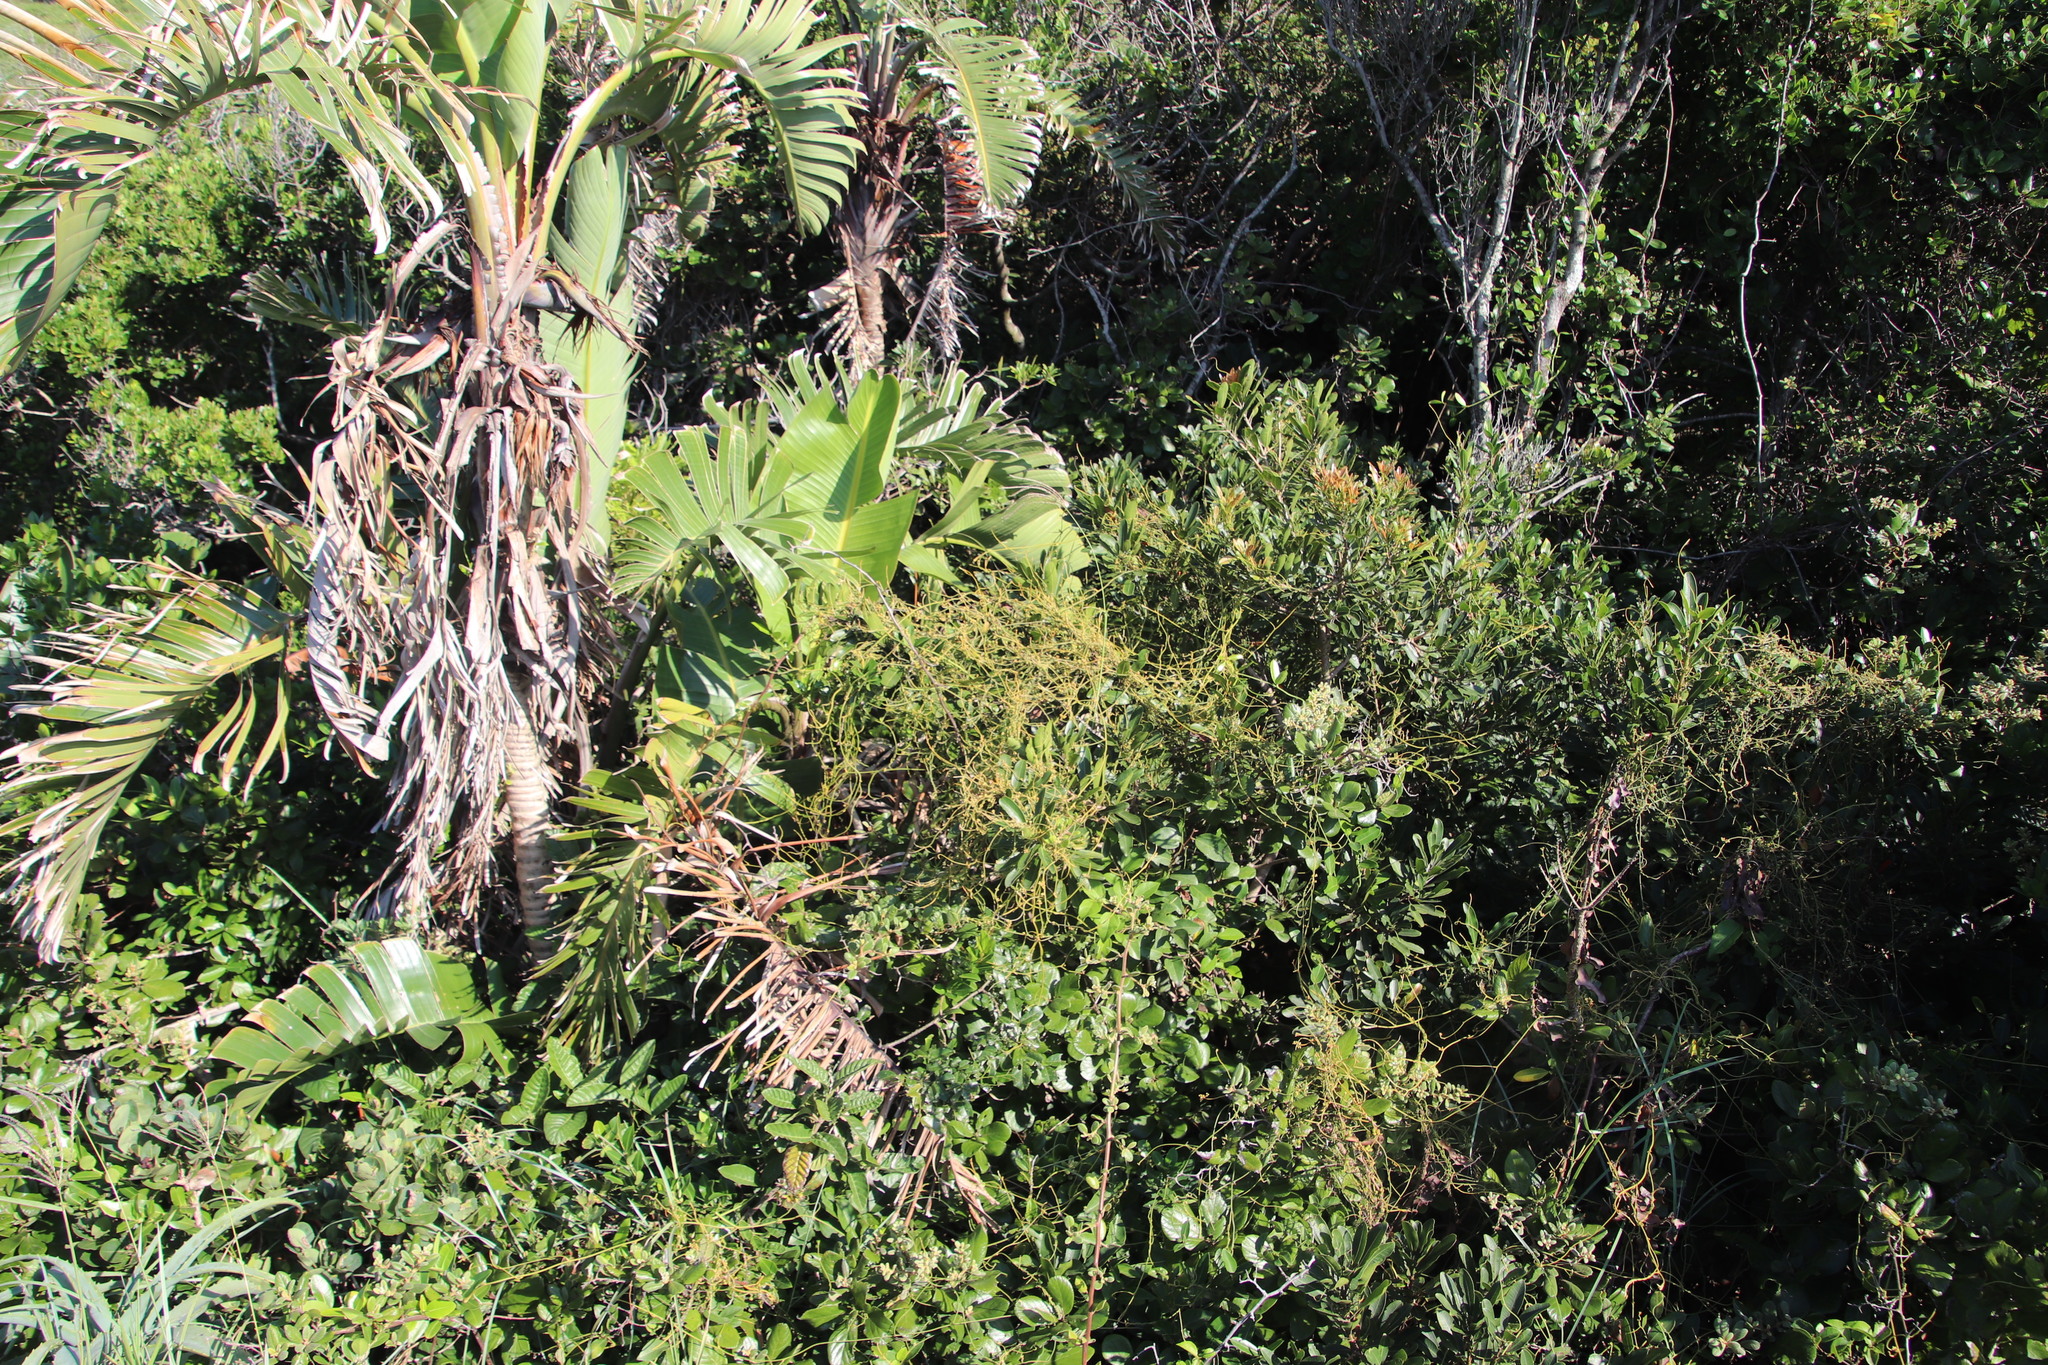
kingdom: Plantae
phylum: Tracheophyta
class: Magnoliopsida
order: Laurales
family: Lauraceae
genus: Cassytha
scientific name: Cassytha pondoensis
